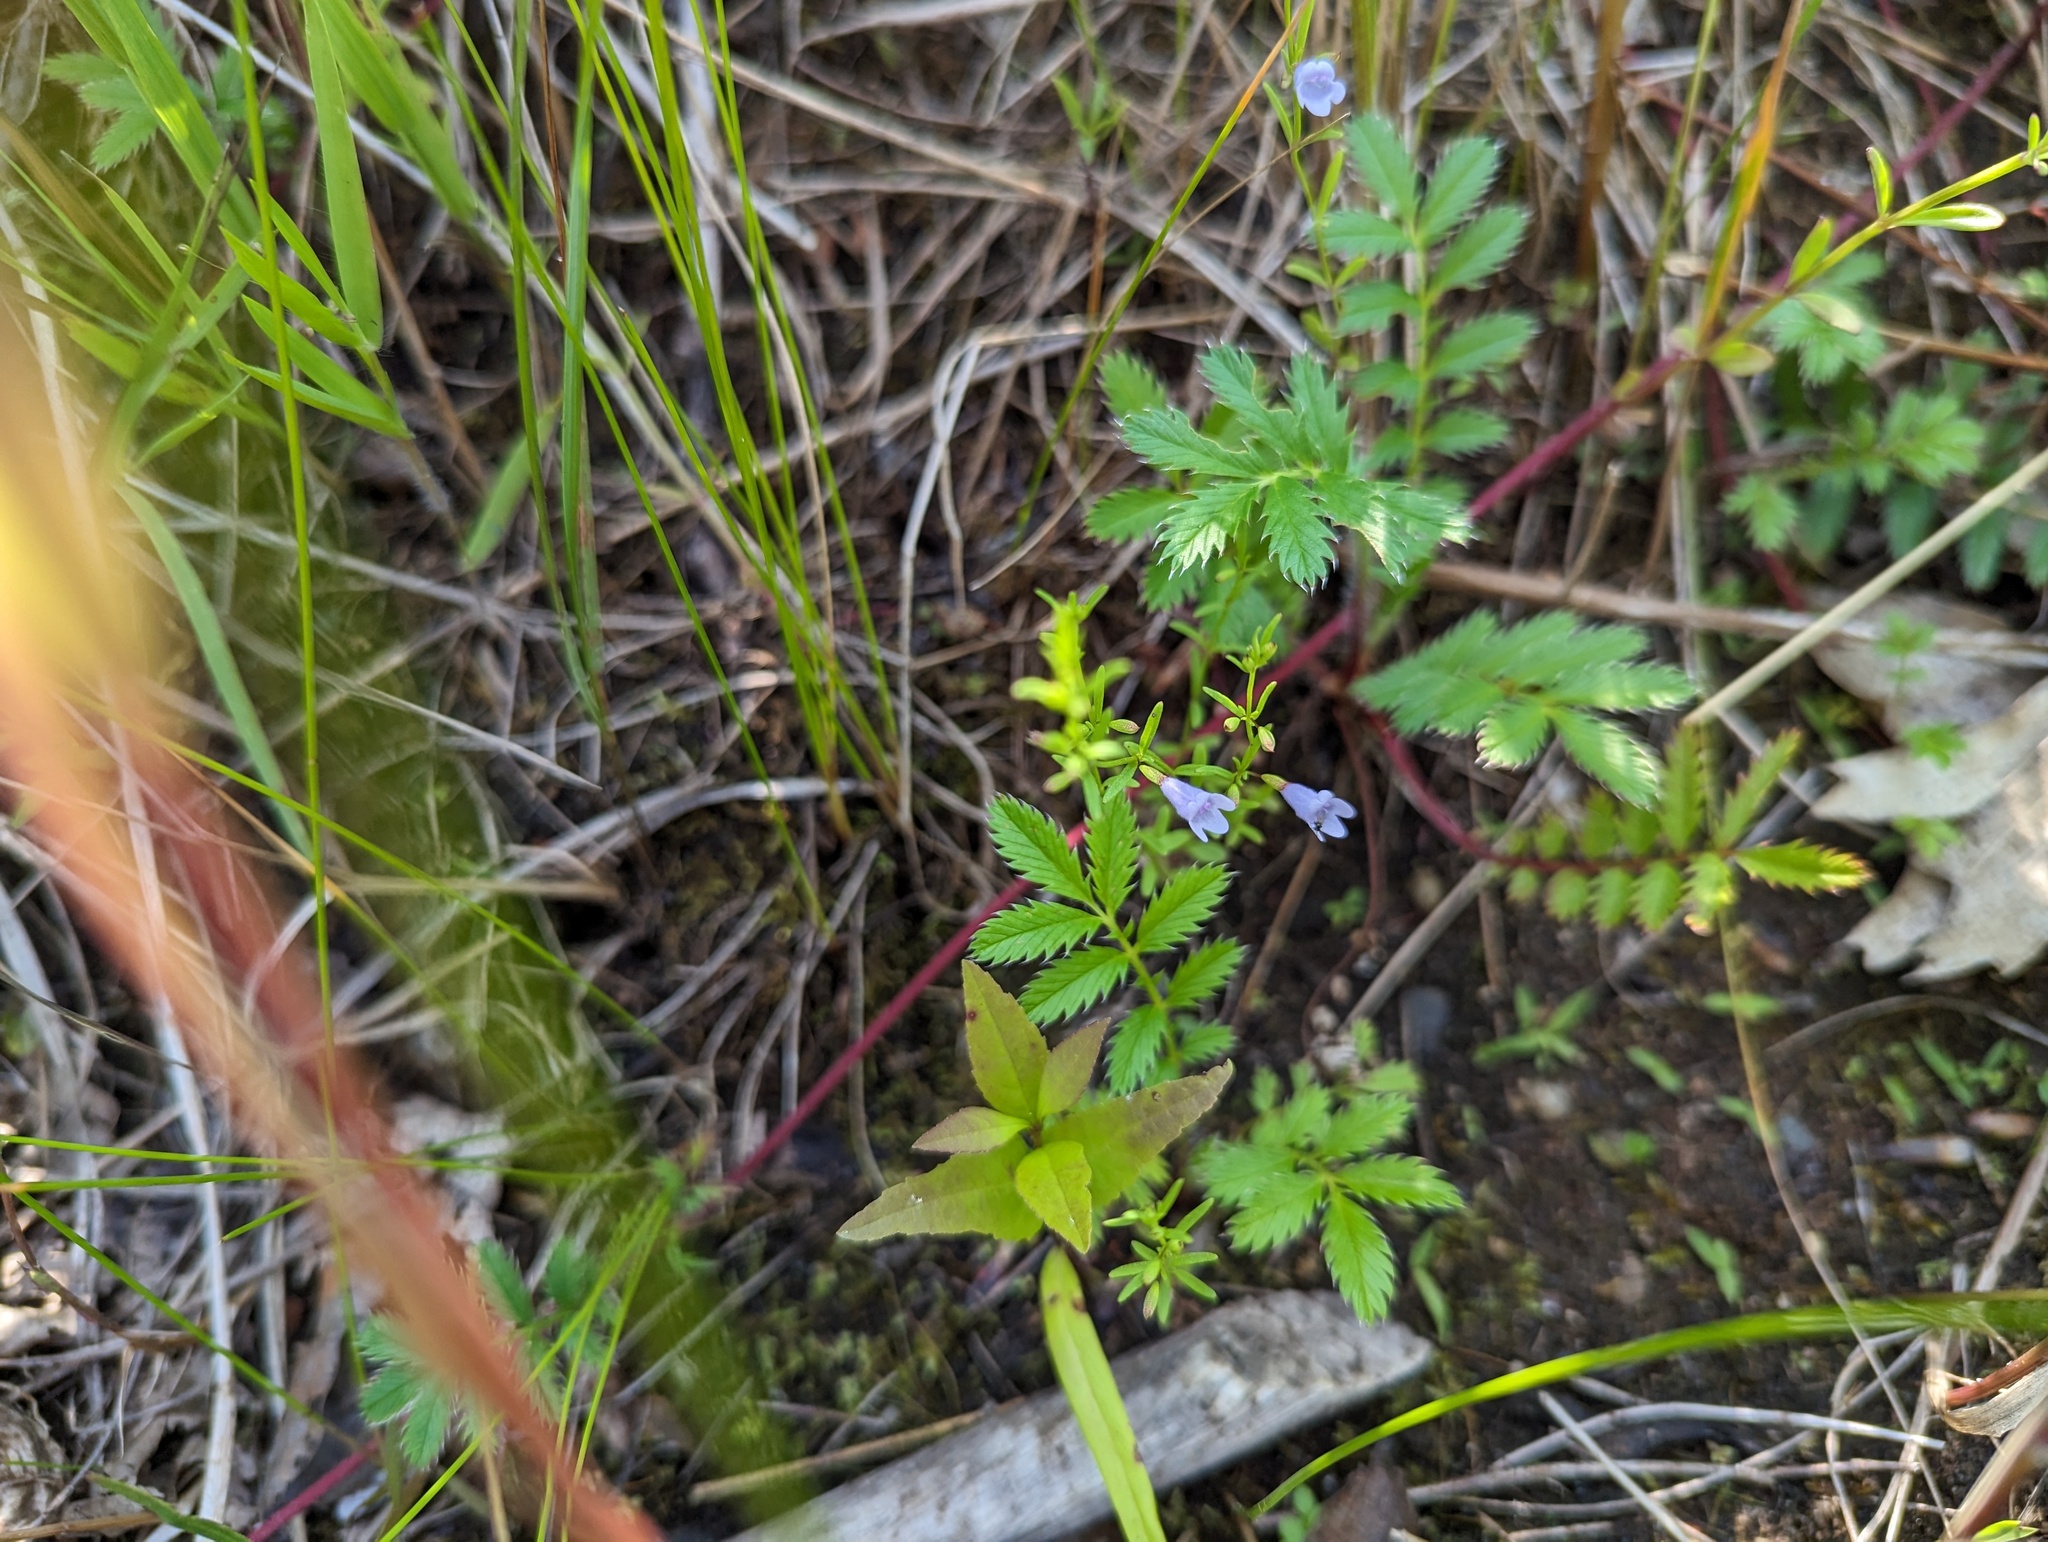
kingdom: Plantae
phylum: Tracheophyta
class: Magnoliopsida
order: Lamiales
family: Lamiaceae
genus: Clinopodium
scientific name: Clinopodium arkansanum
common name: Limestone calamint
